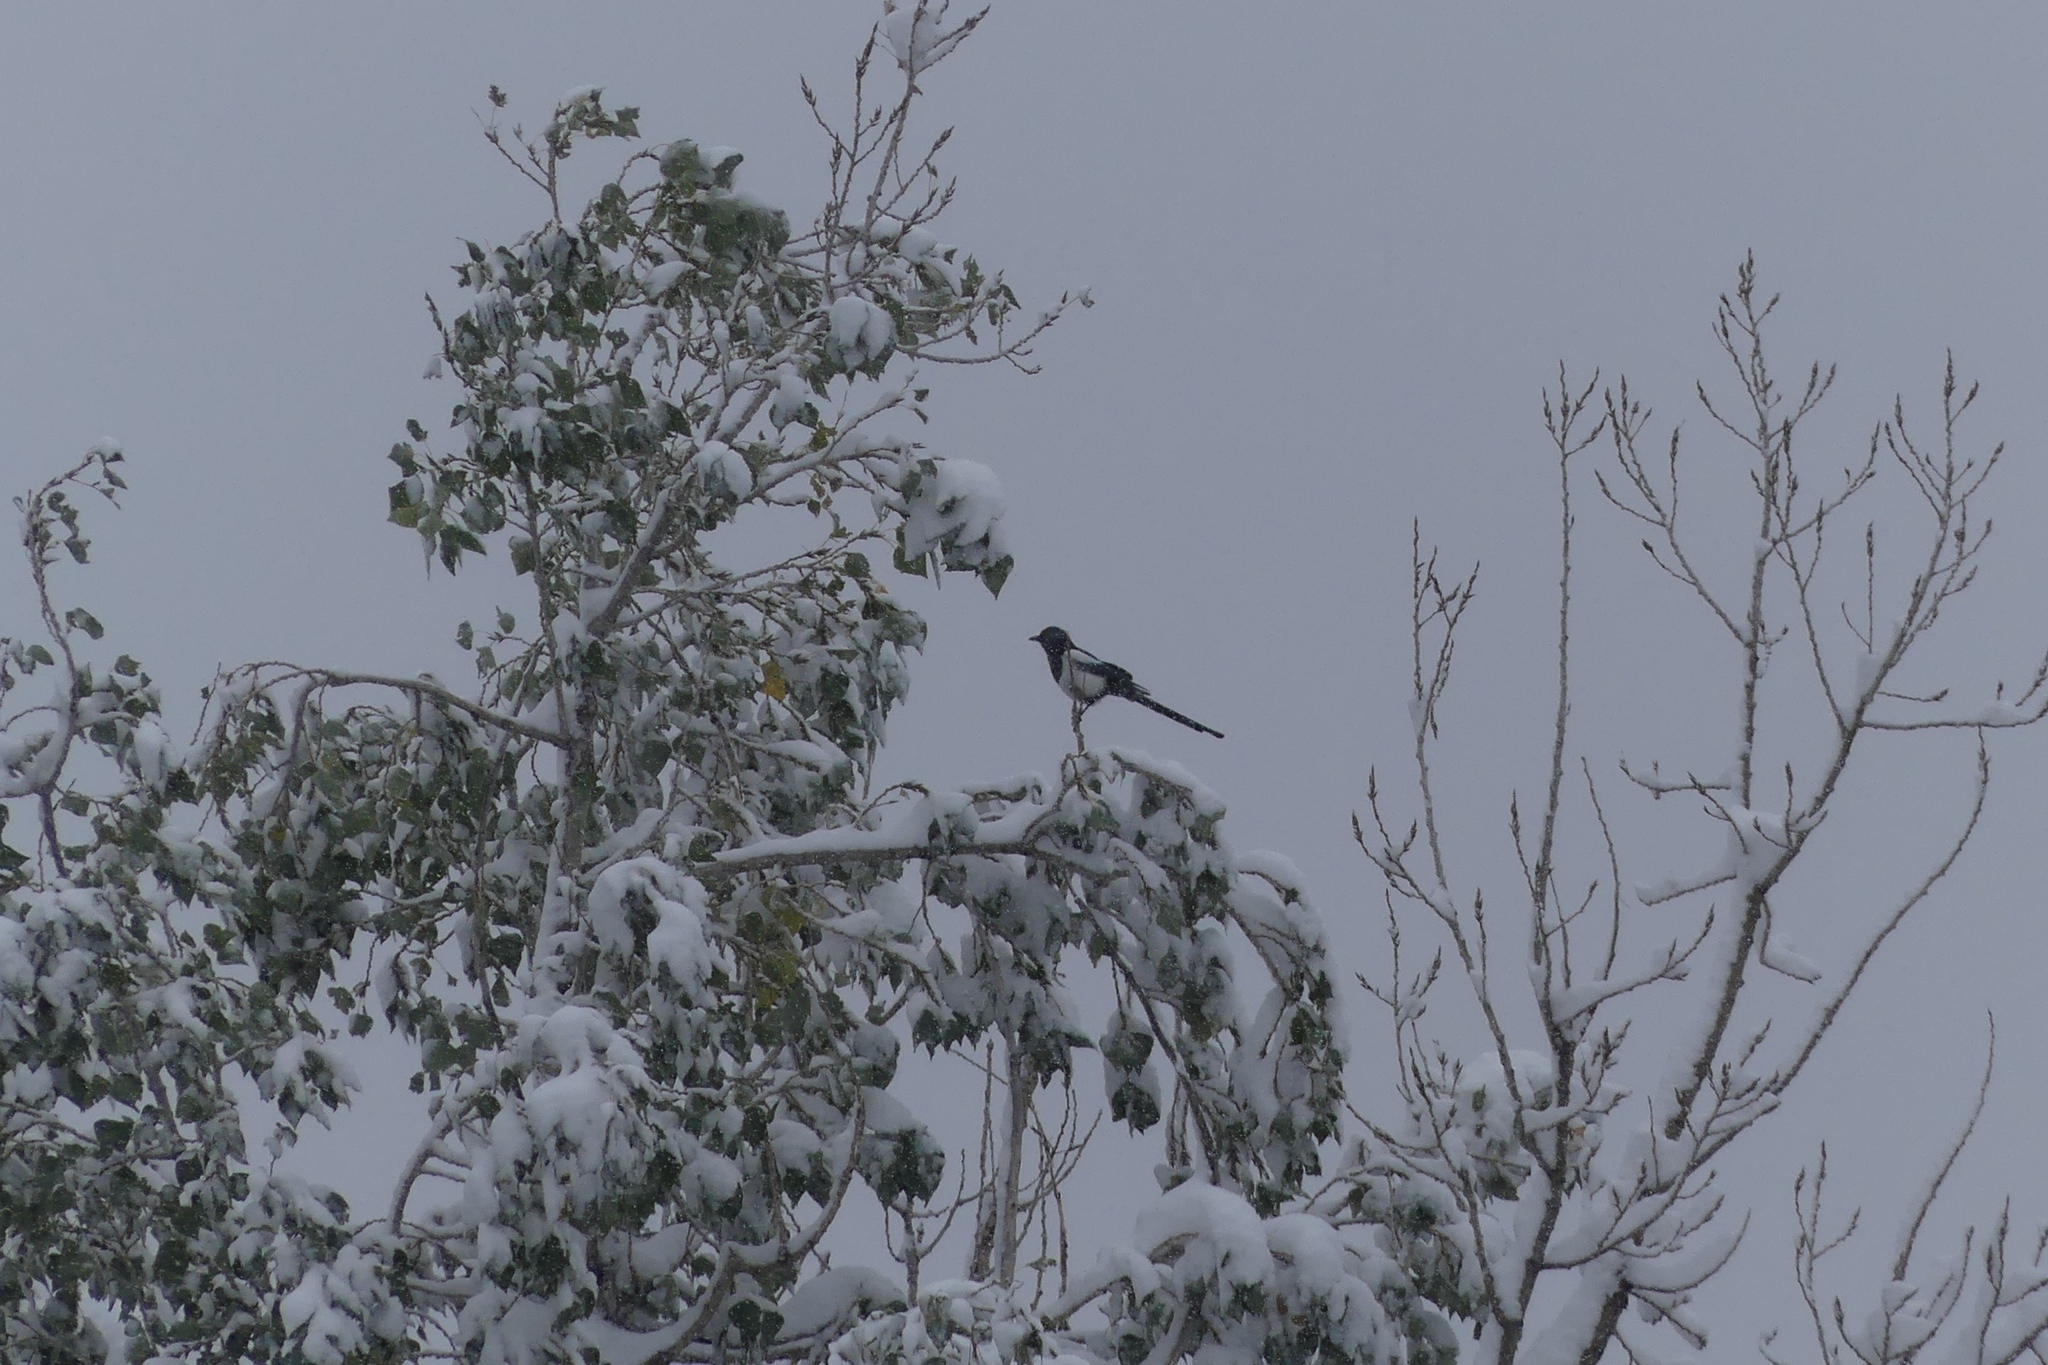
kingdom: Animalia
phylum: Chordata
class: Aves
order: Passeriformes
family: Corvidae
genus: Pica
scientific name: Pica hudsonia
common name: Black-billed magpie
